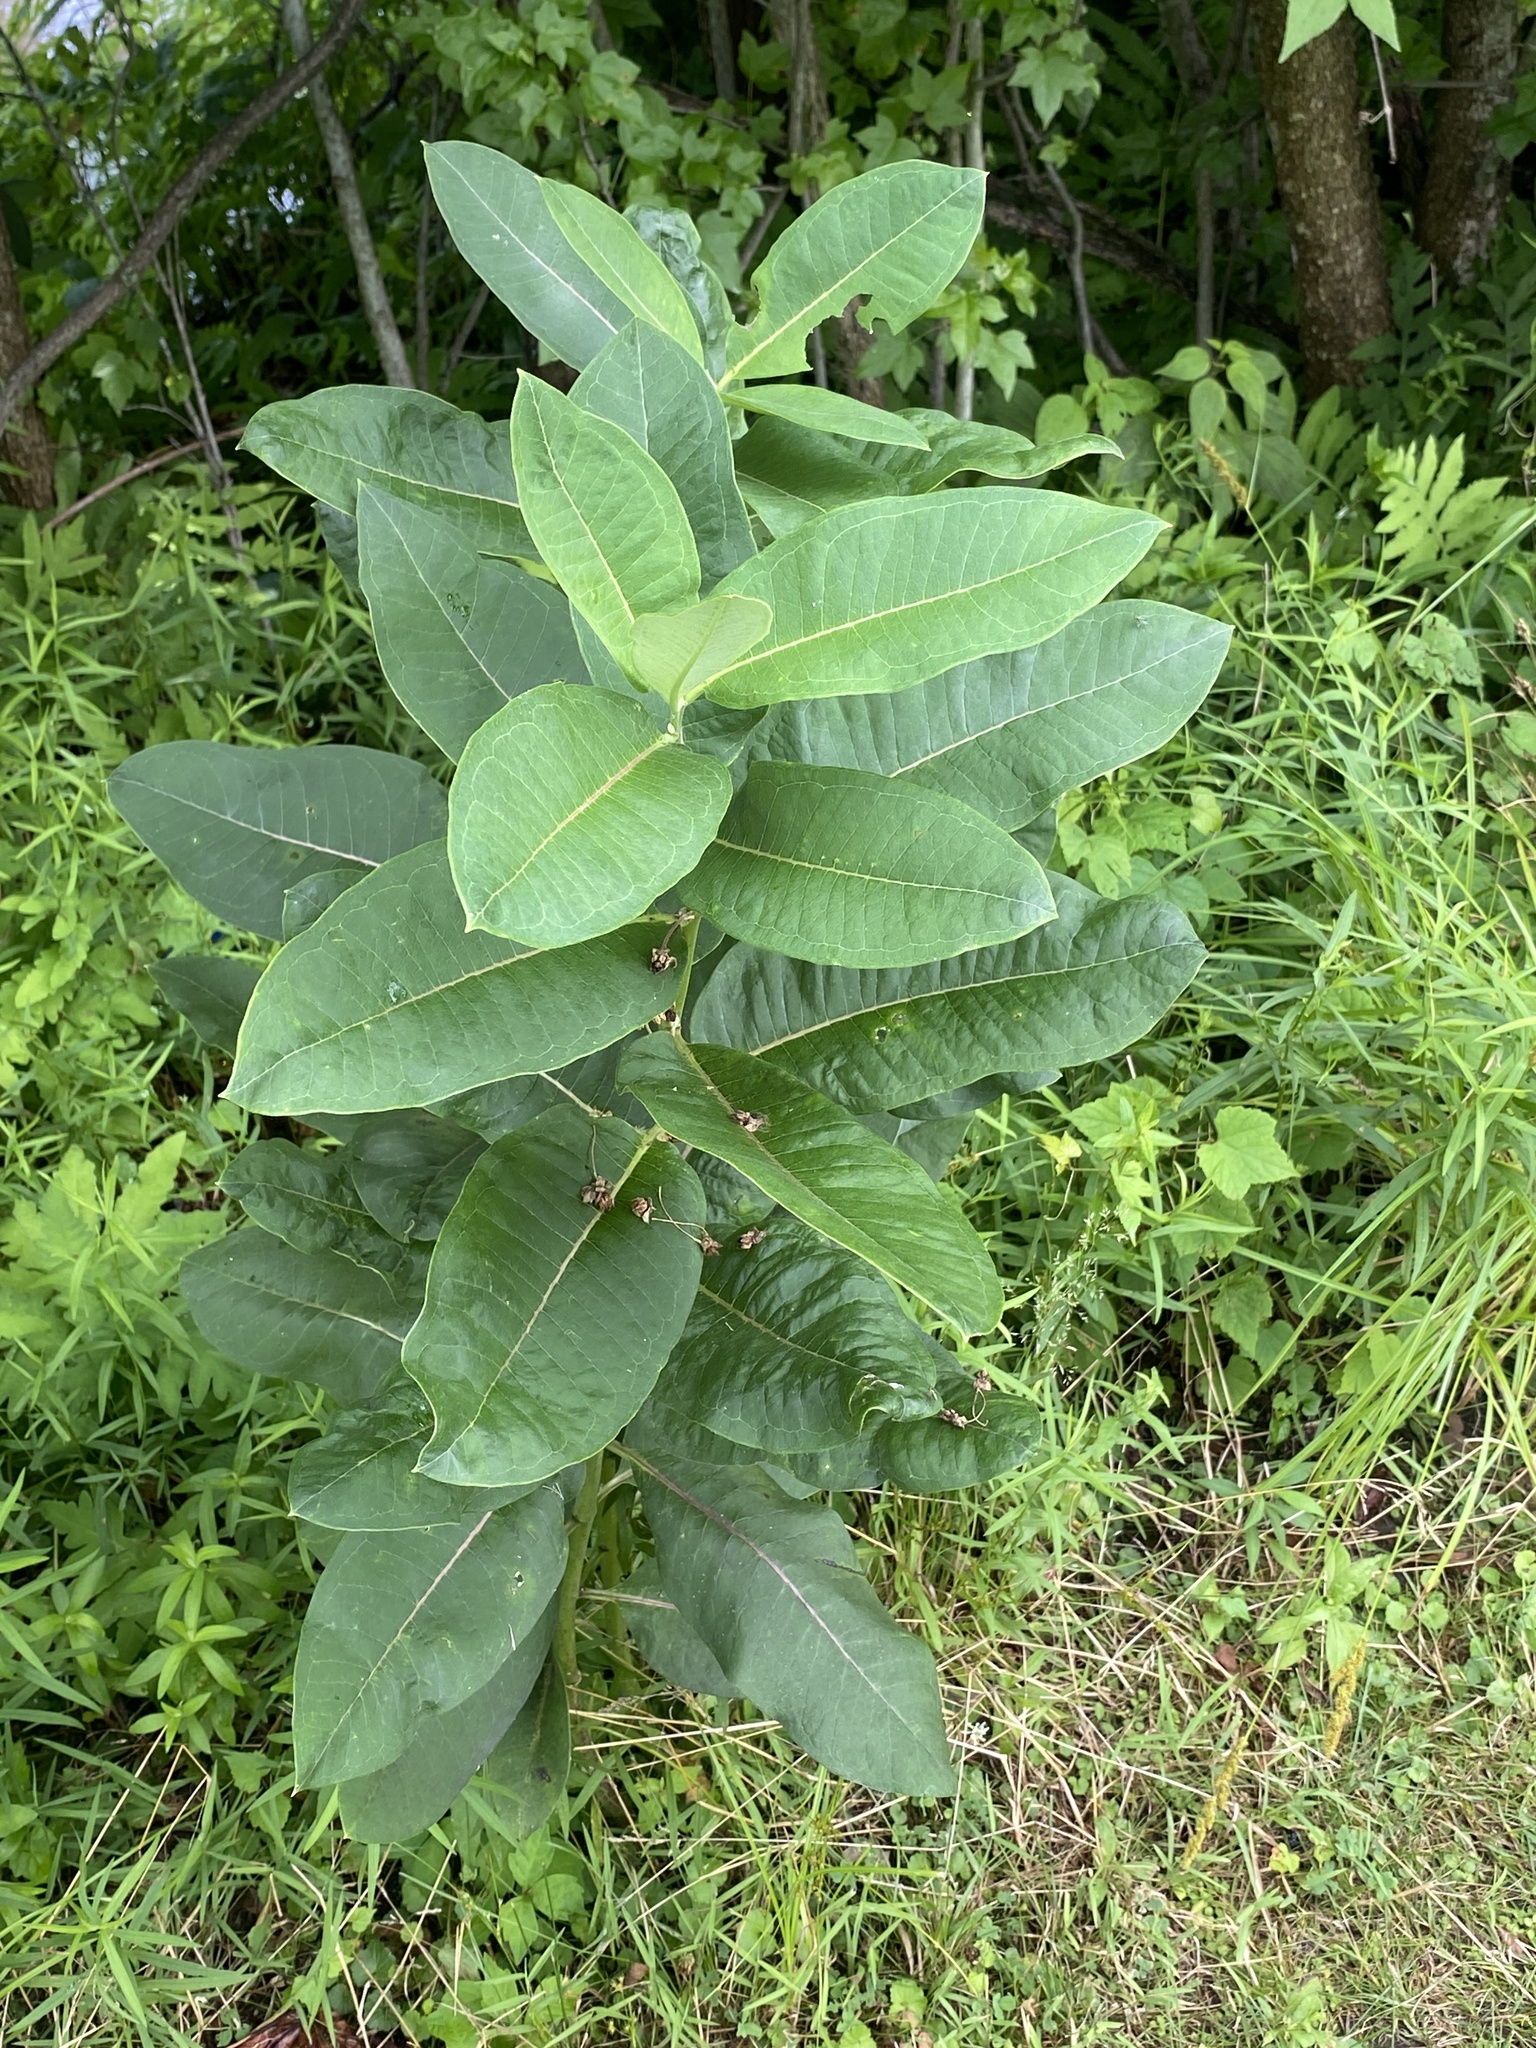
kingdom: Plantae
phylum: Tracheophyta
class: Magnoliopsida
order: Gentianales
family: Apocynaceae
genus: Asclepias
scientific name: Asclepias syriaca
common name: Common milkweed
